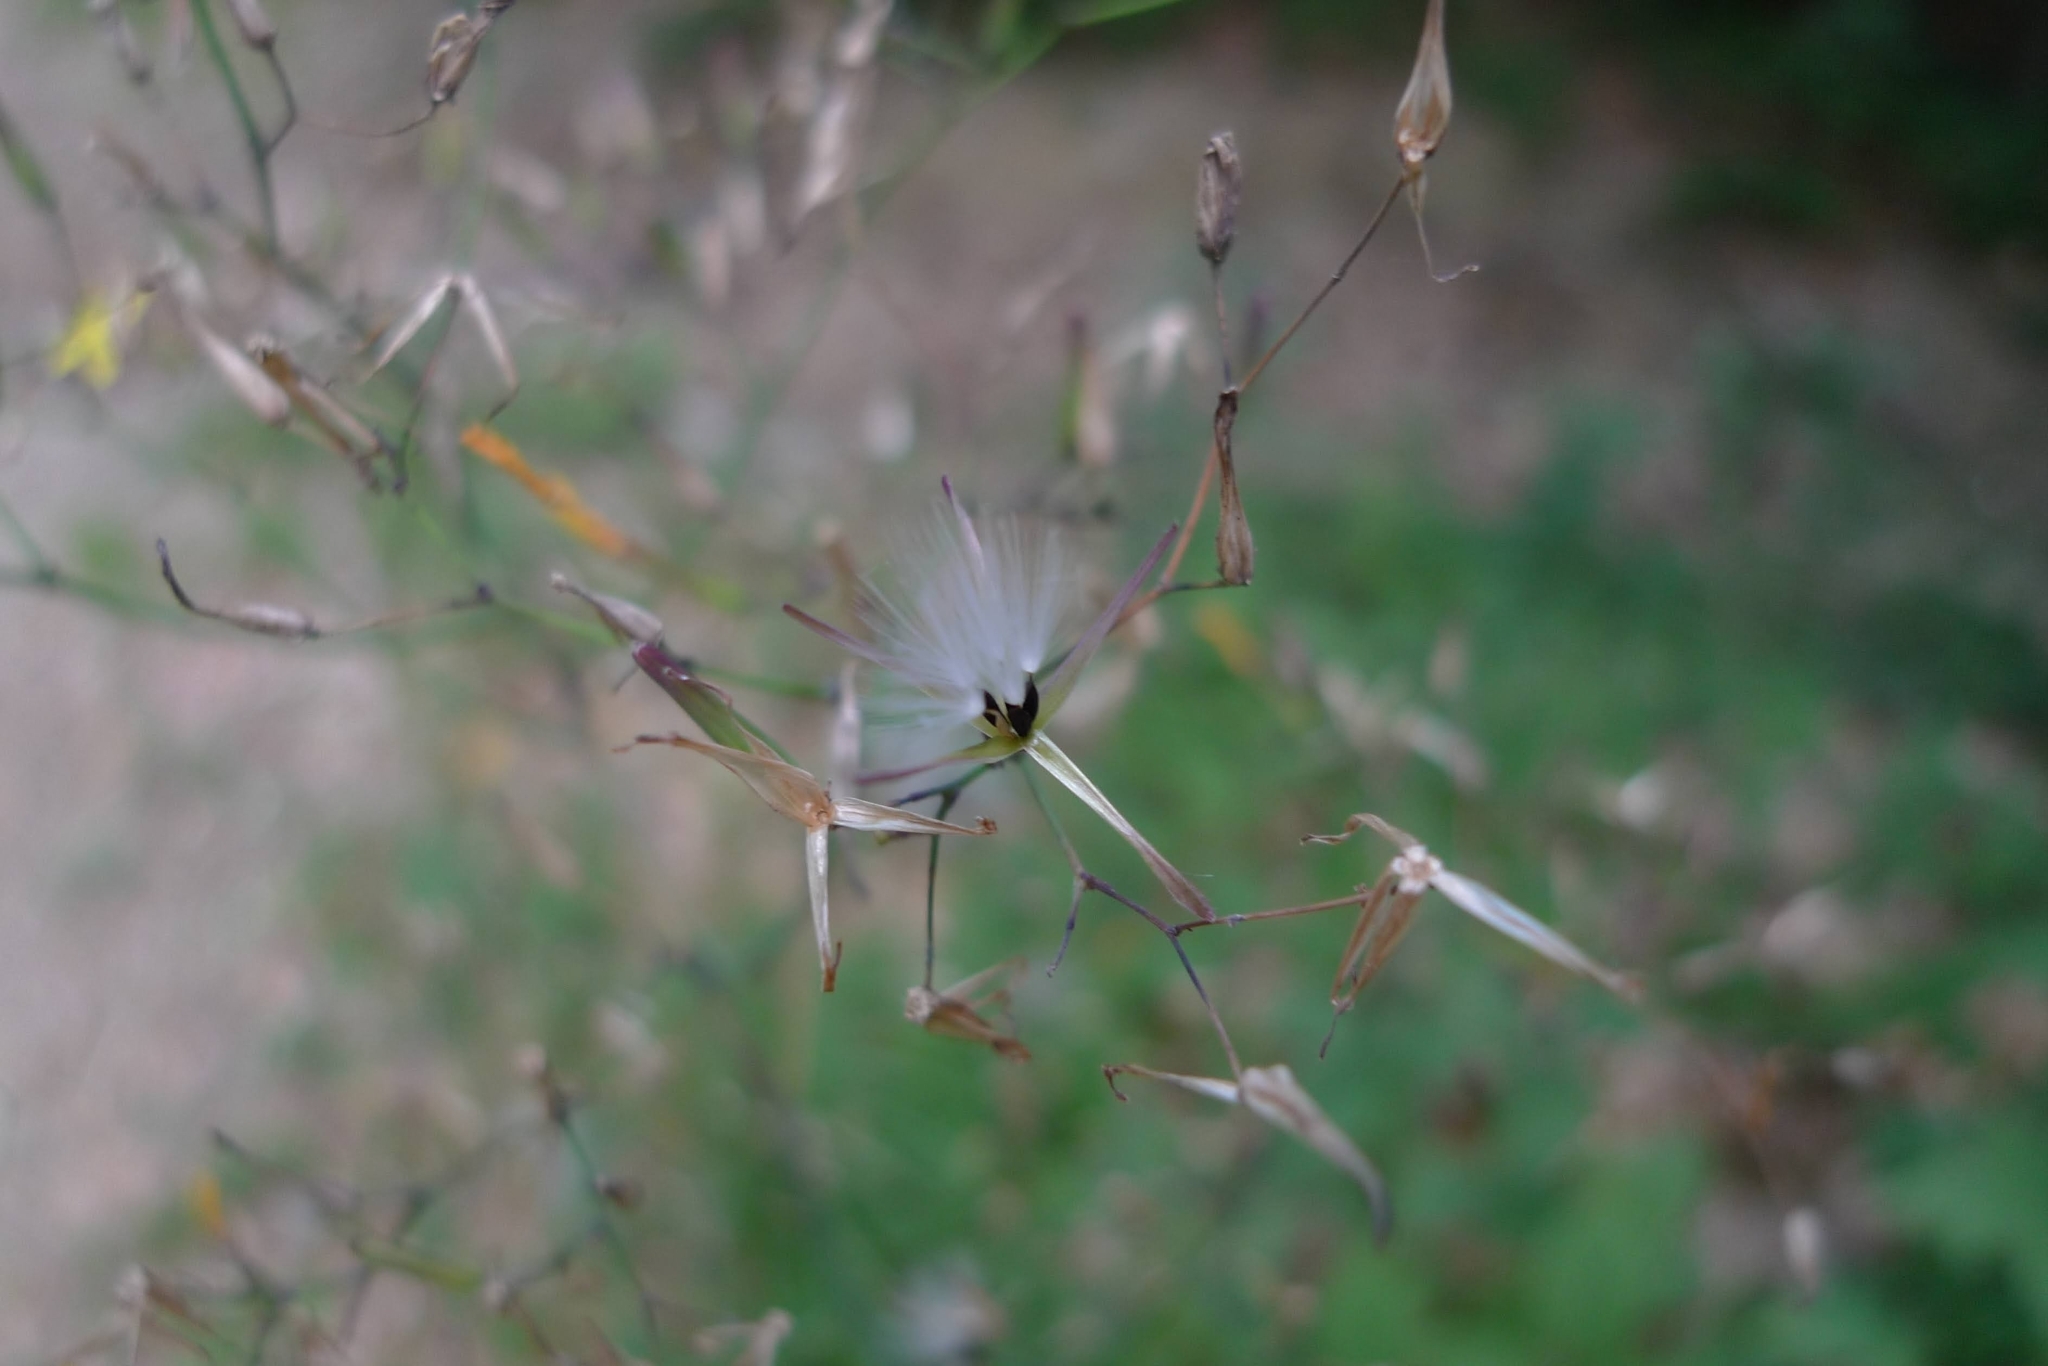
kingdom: Plantae
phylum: Tracheophyta
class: Magnoliopsida
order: Asterales
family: Asteraceae
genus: Mycelis
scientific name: Mycelis muralis
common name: Wall lettuce
